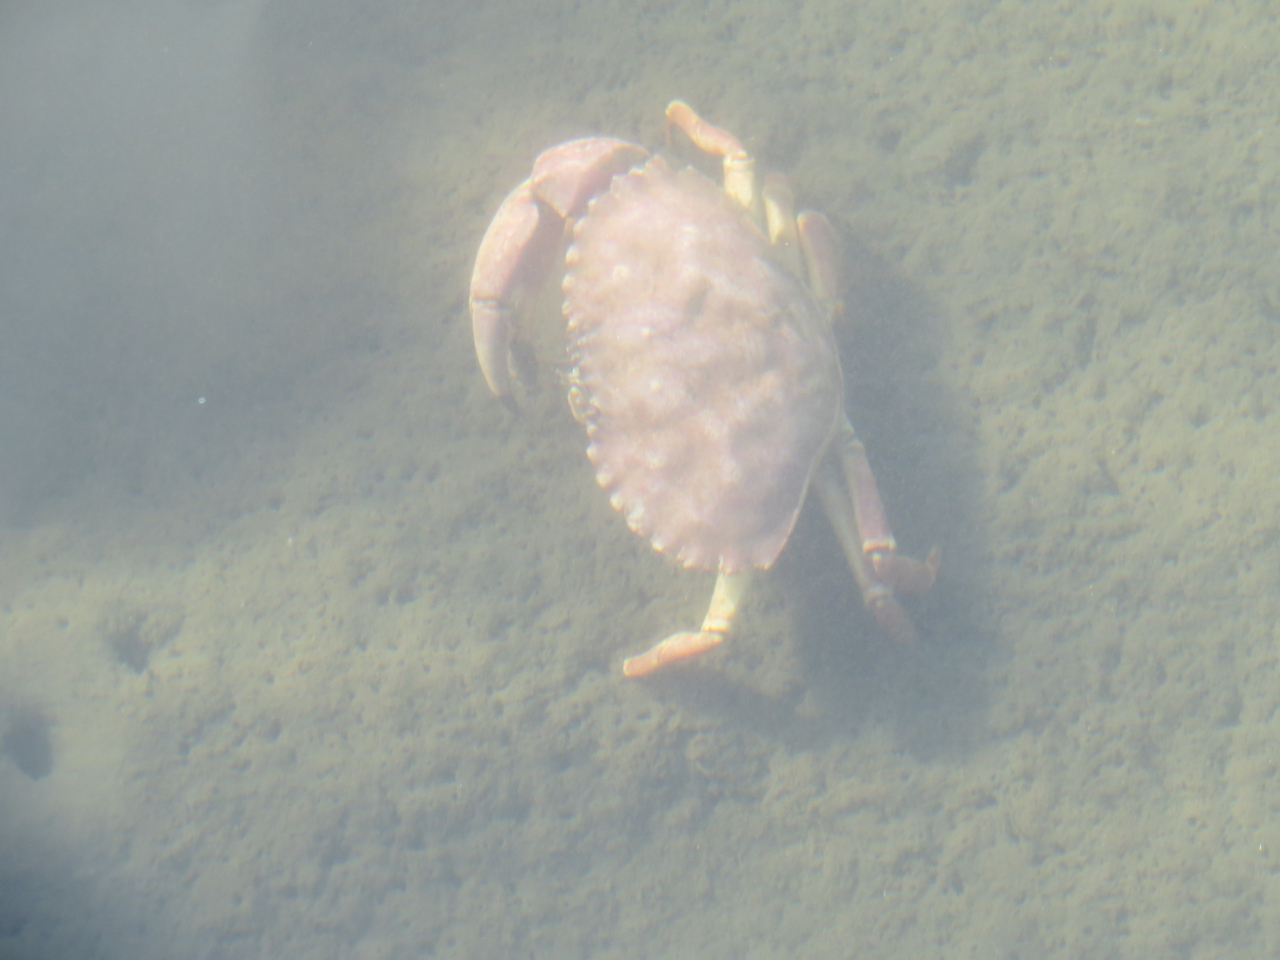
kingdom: Animalia
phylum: Arthropoda
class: Malacostraca
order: Decapoda
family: Cancridae
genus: Metacarcinus
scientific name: Metacarcinus anthonyi
